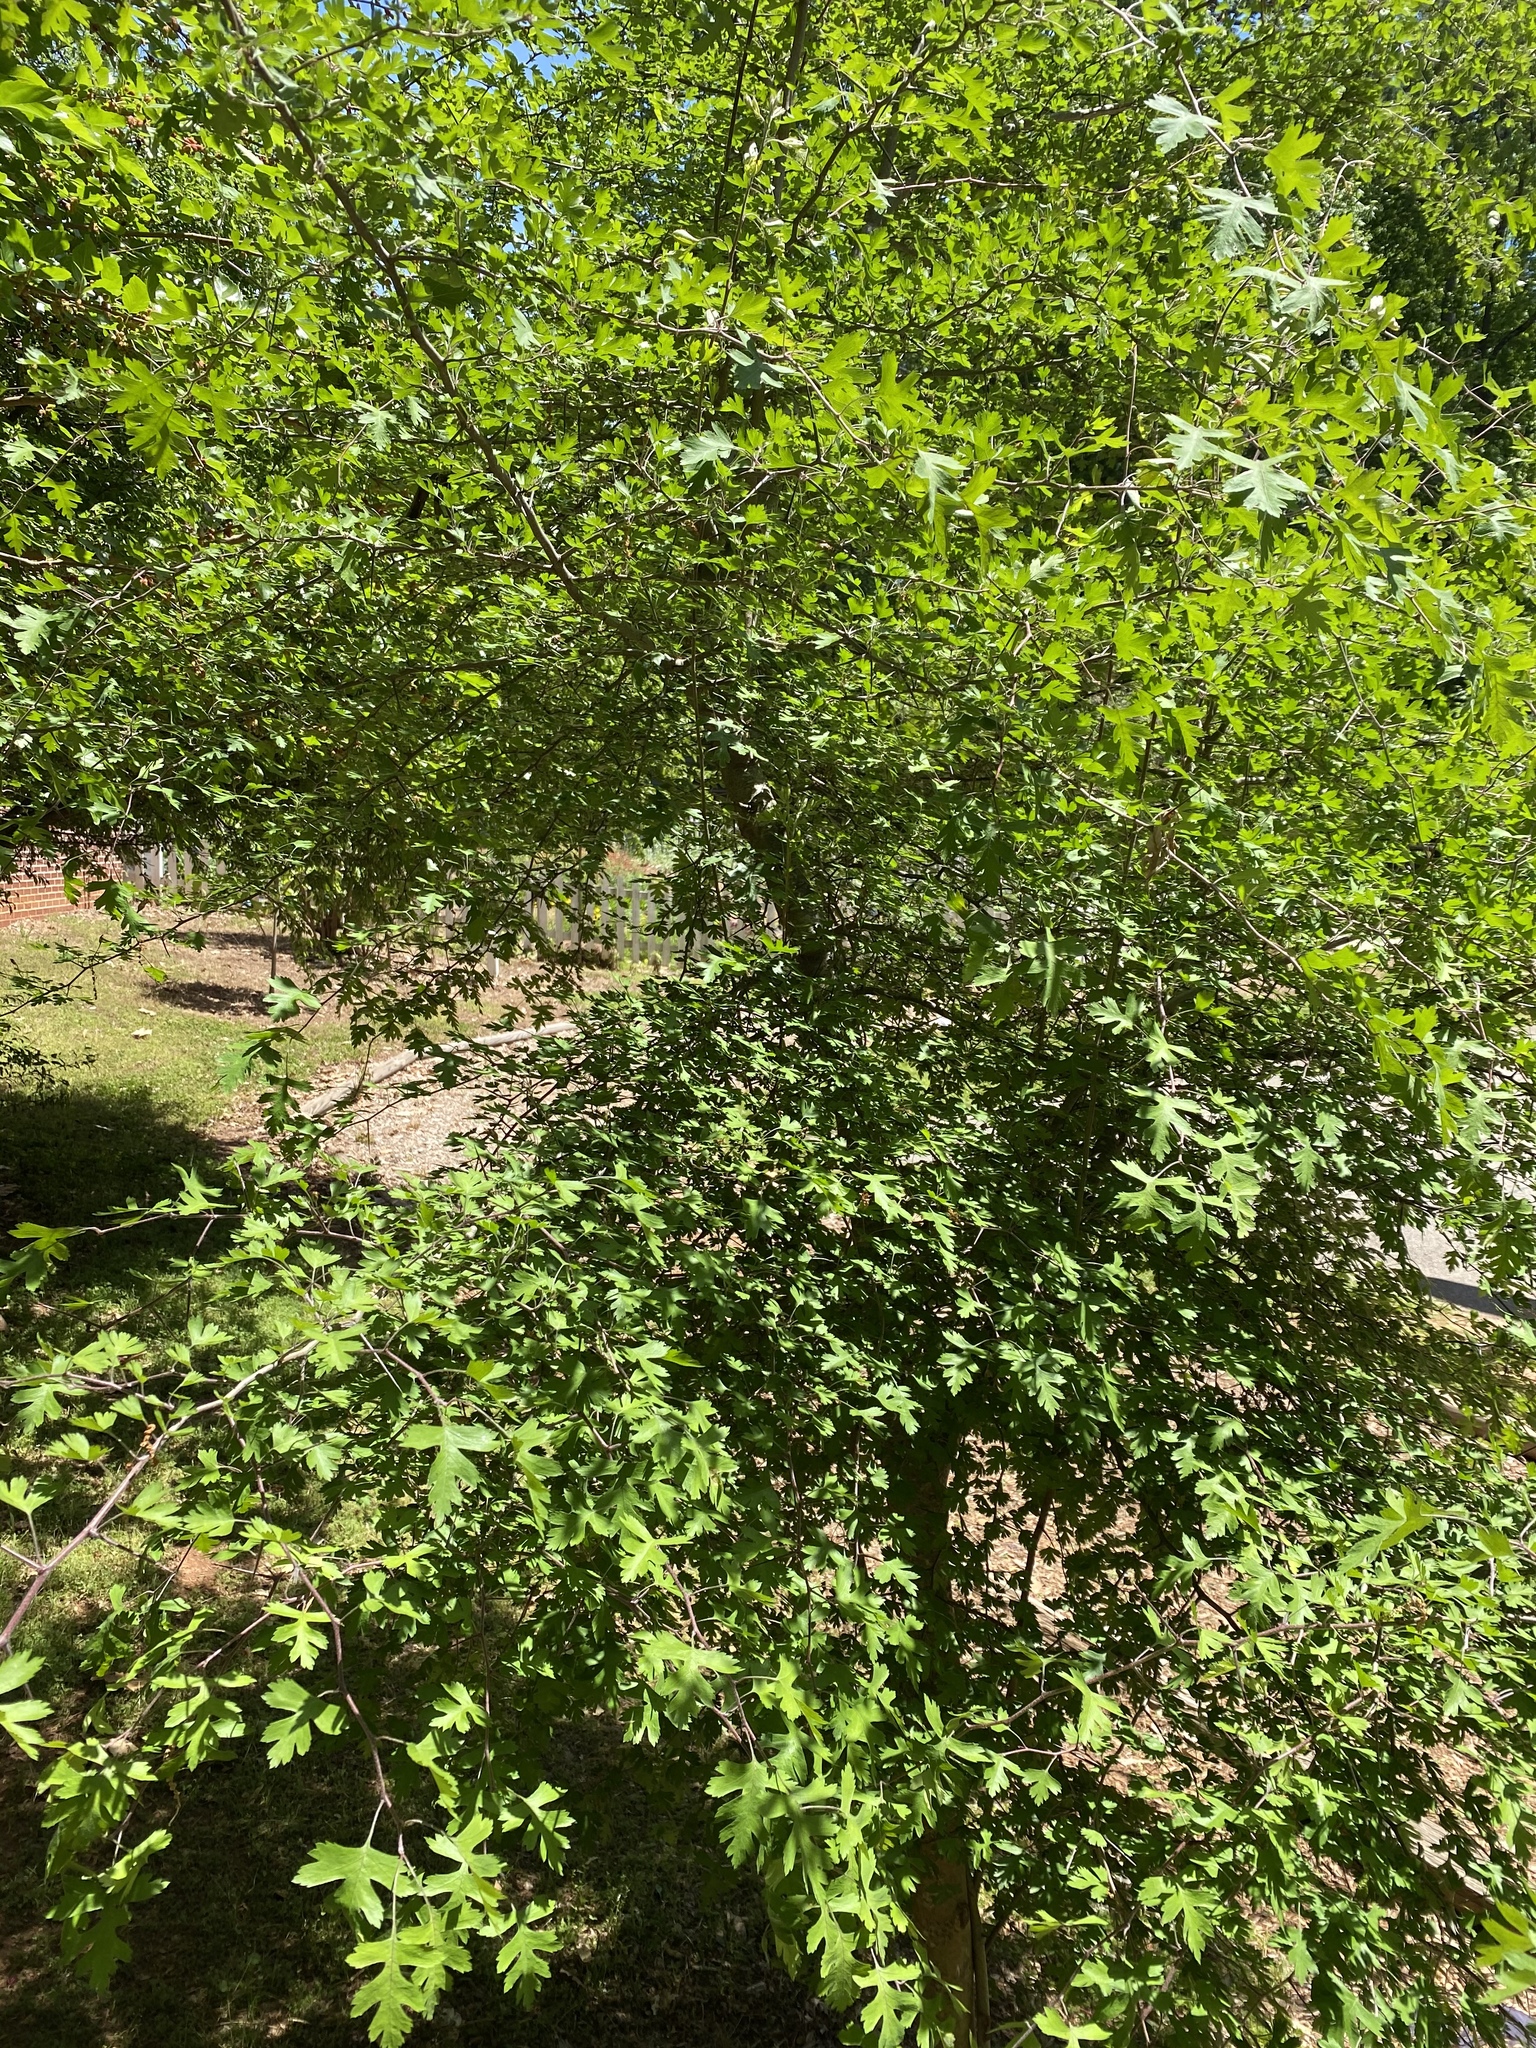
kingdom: Plantae
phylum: Tracheophyta
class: Magnoliopsida
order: Rosales
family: Rosaceae
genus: Crataegus
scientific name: Crataegus marshallii
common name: Parsley-hawthorn
